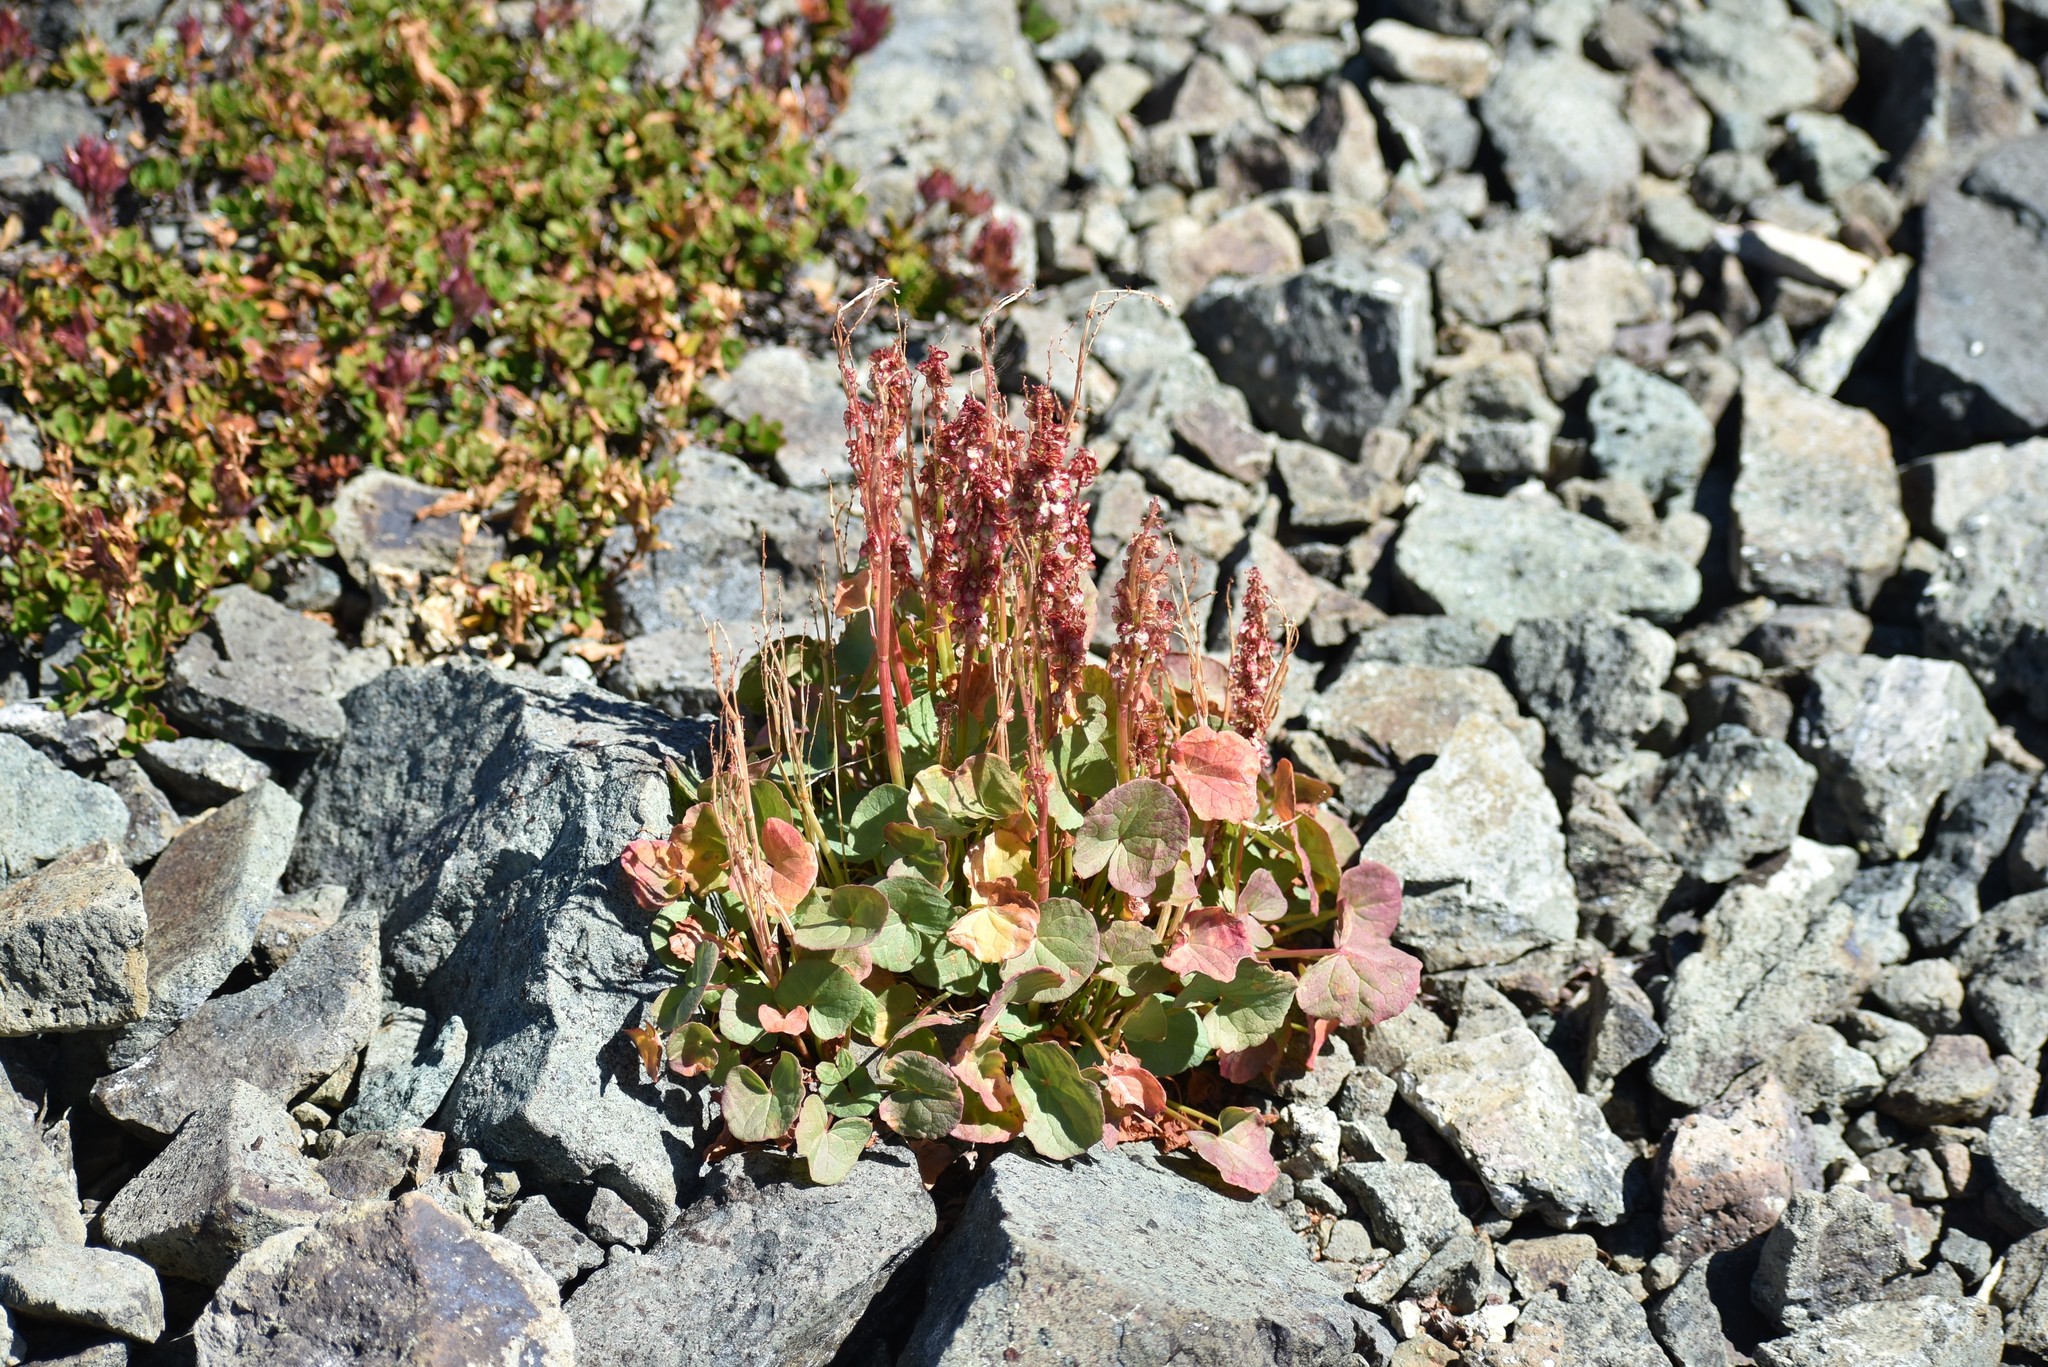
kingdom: Plantae
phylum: Tracheophyta
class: Magnoliopsida
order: Caryophyllales
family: Polygonaceae
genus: Oxyria
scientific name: Oxyria digyna
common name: Alpine mountain-sorrel
